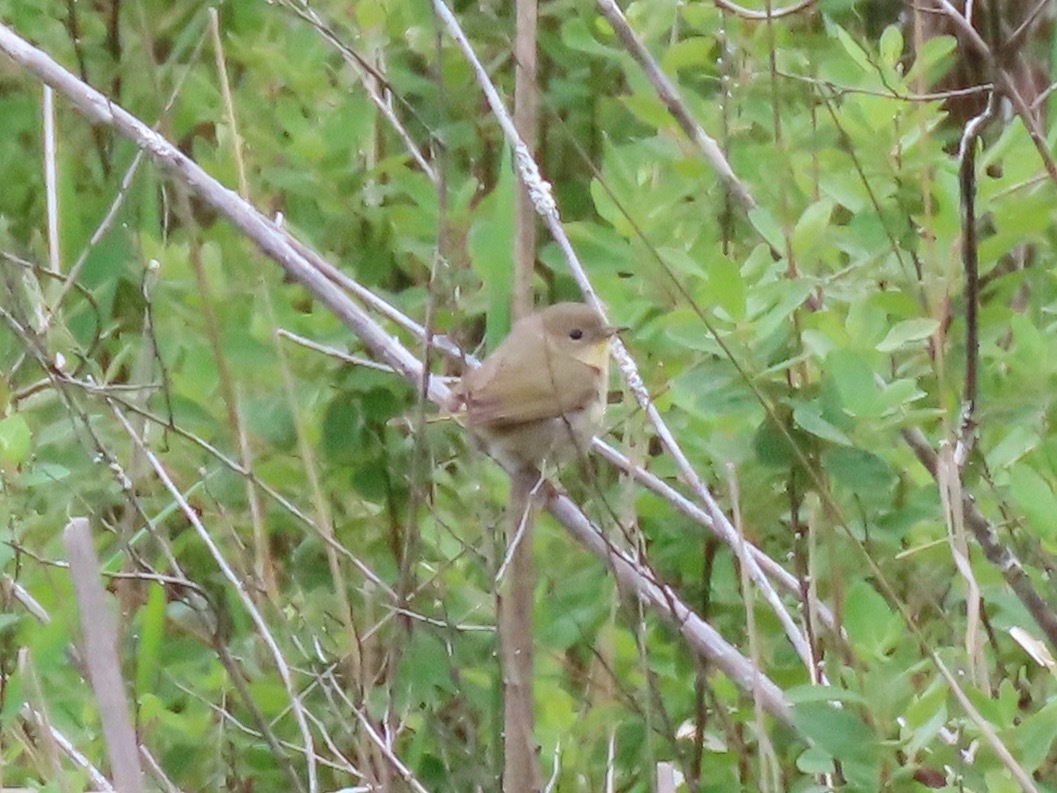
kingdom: Animalia
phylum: Chordata
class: Aves
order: Passeriformes
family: Parulidae
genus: Geothlypis
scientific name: Geothlypis trichas
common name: Common yellowthroat
